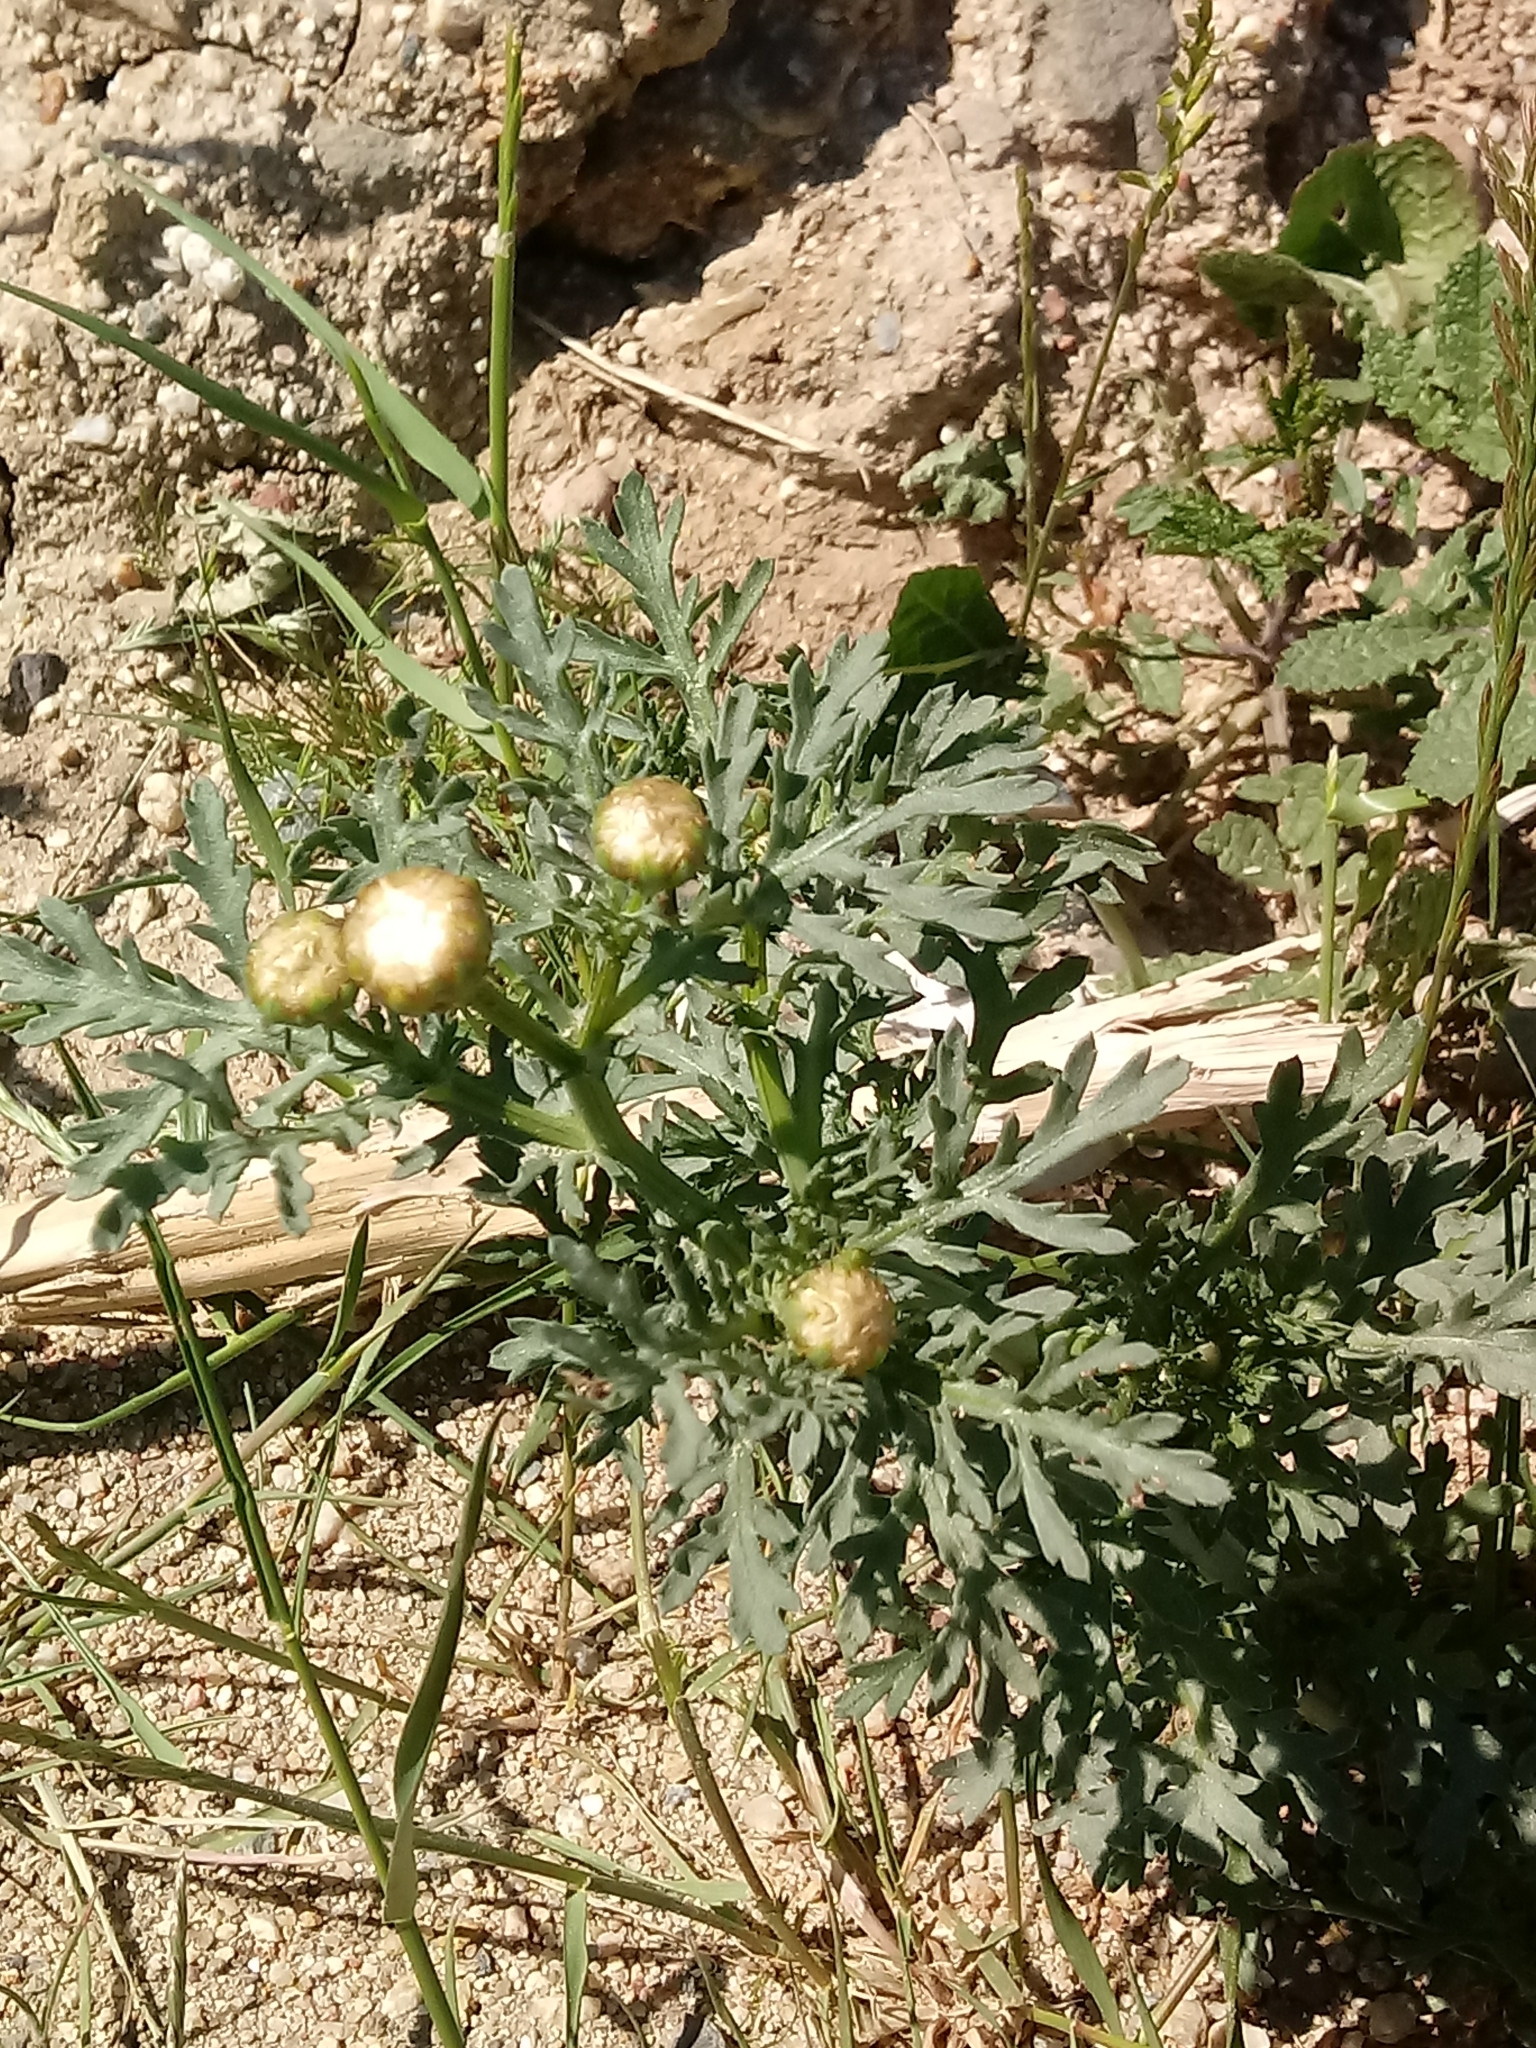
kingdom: Plantae
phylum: Tracheophyta
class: Magnoliopsida
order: Asterales
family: Asteraceae
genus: Glebionis
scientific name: Glebionis coronaria
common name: Crowndaisy
